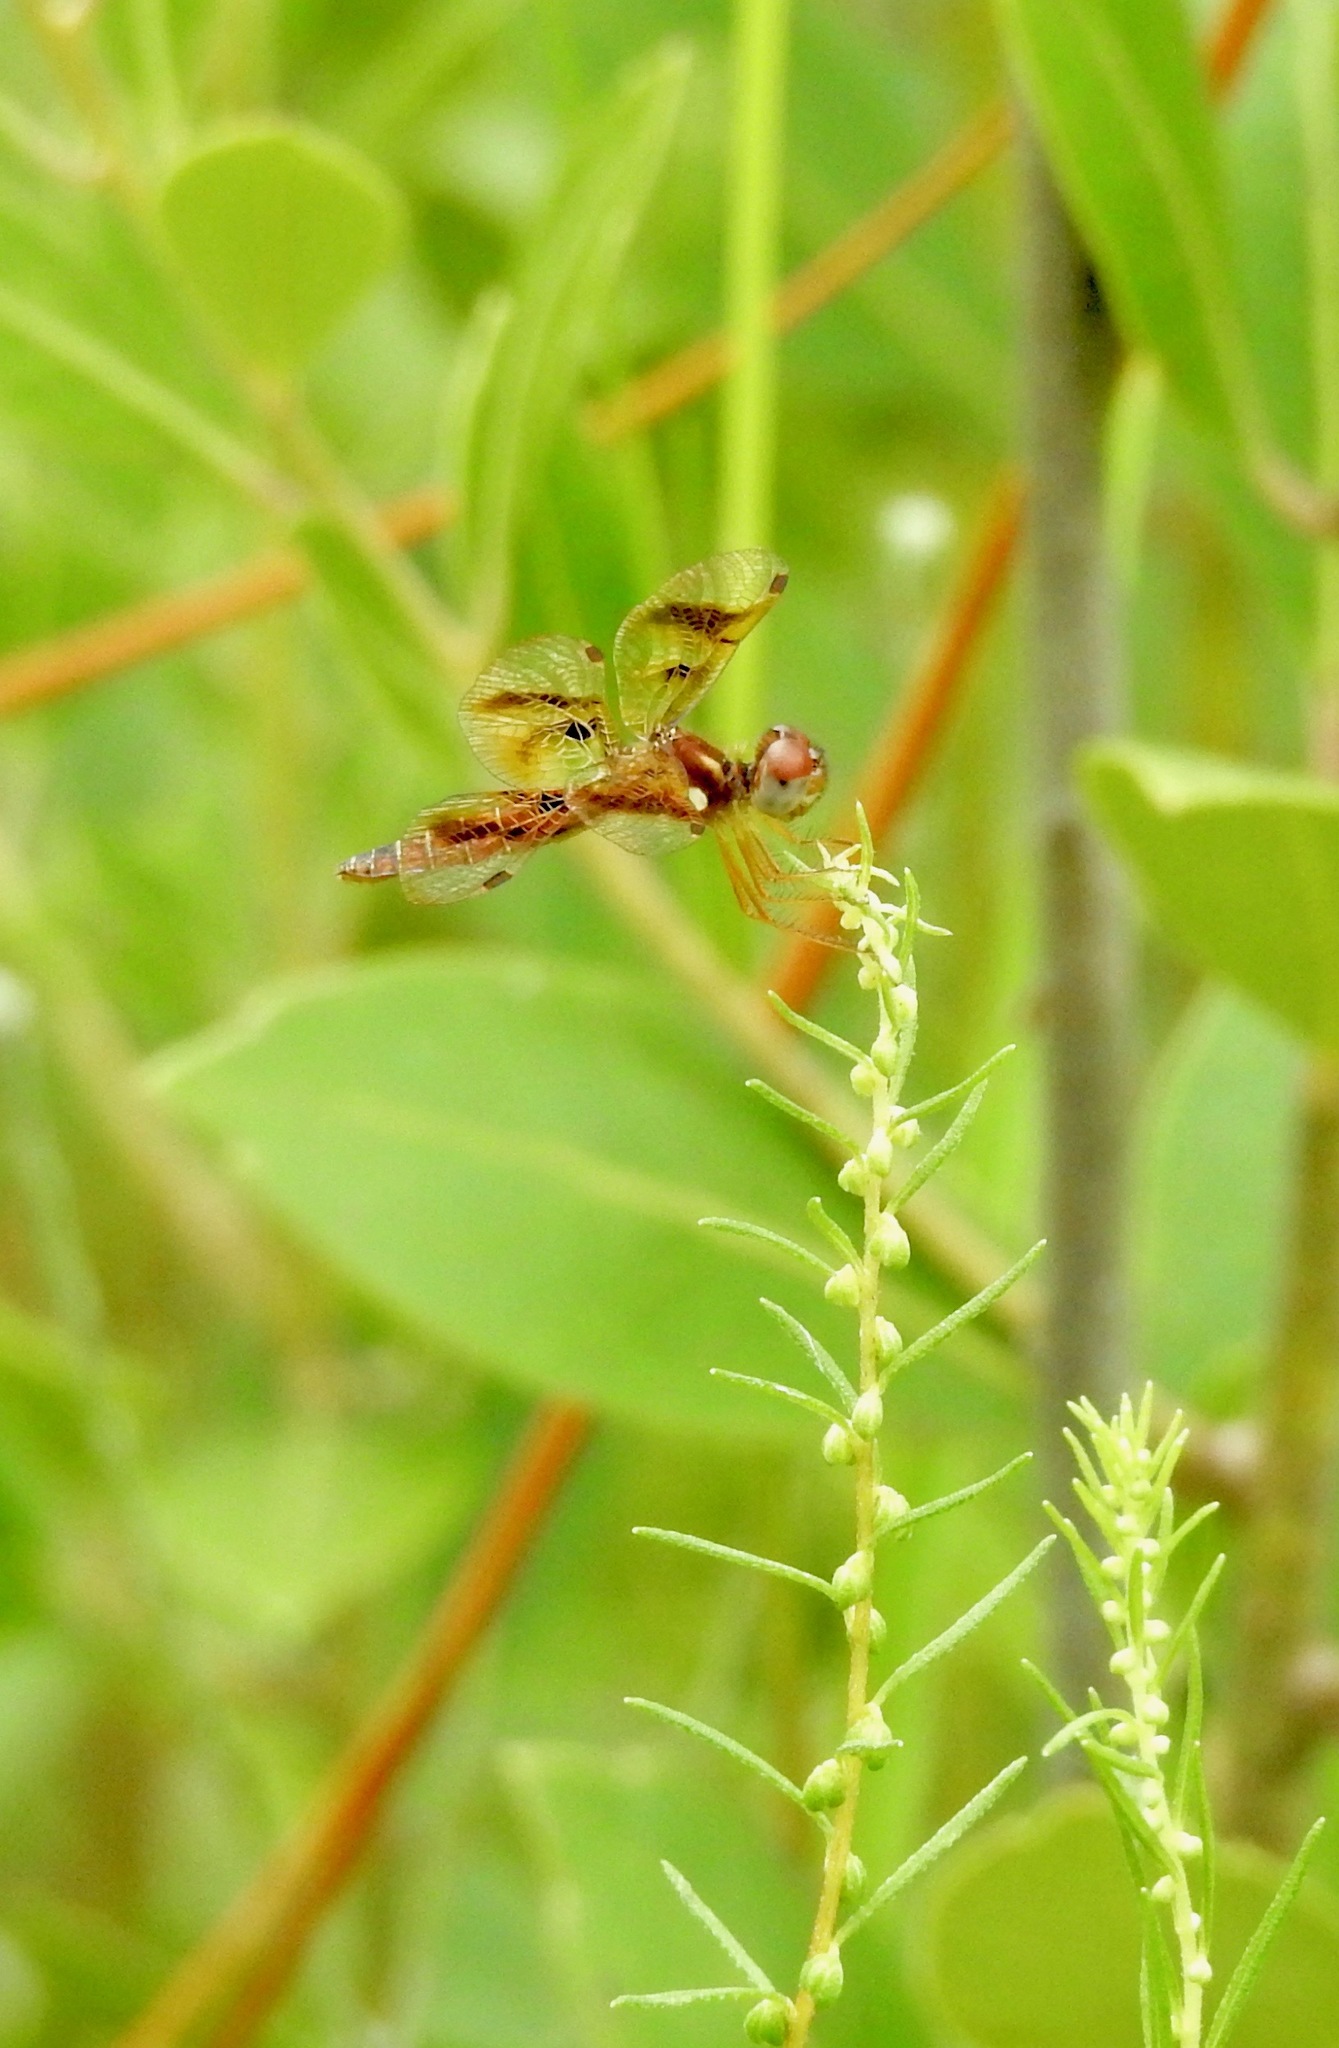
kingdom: Animalia
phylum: Arthropoda
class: Insecta
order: Odonata
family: Libellulidae
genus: Perithemis
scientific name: Perithemis tenera
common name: Eastern amberwing
